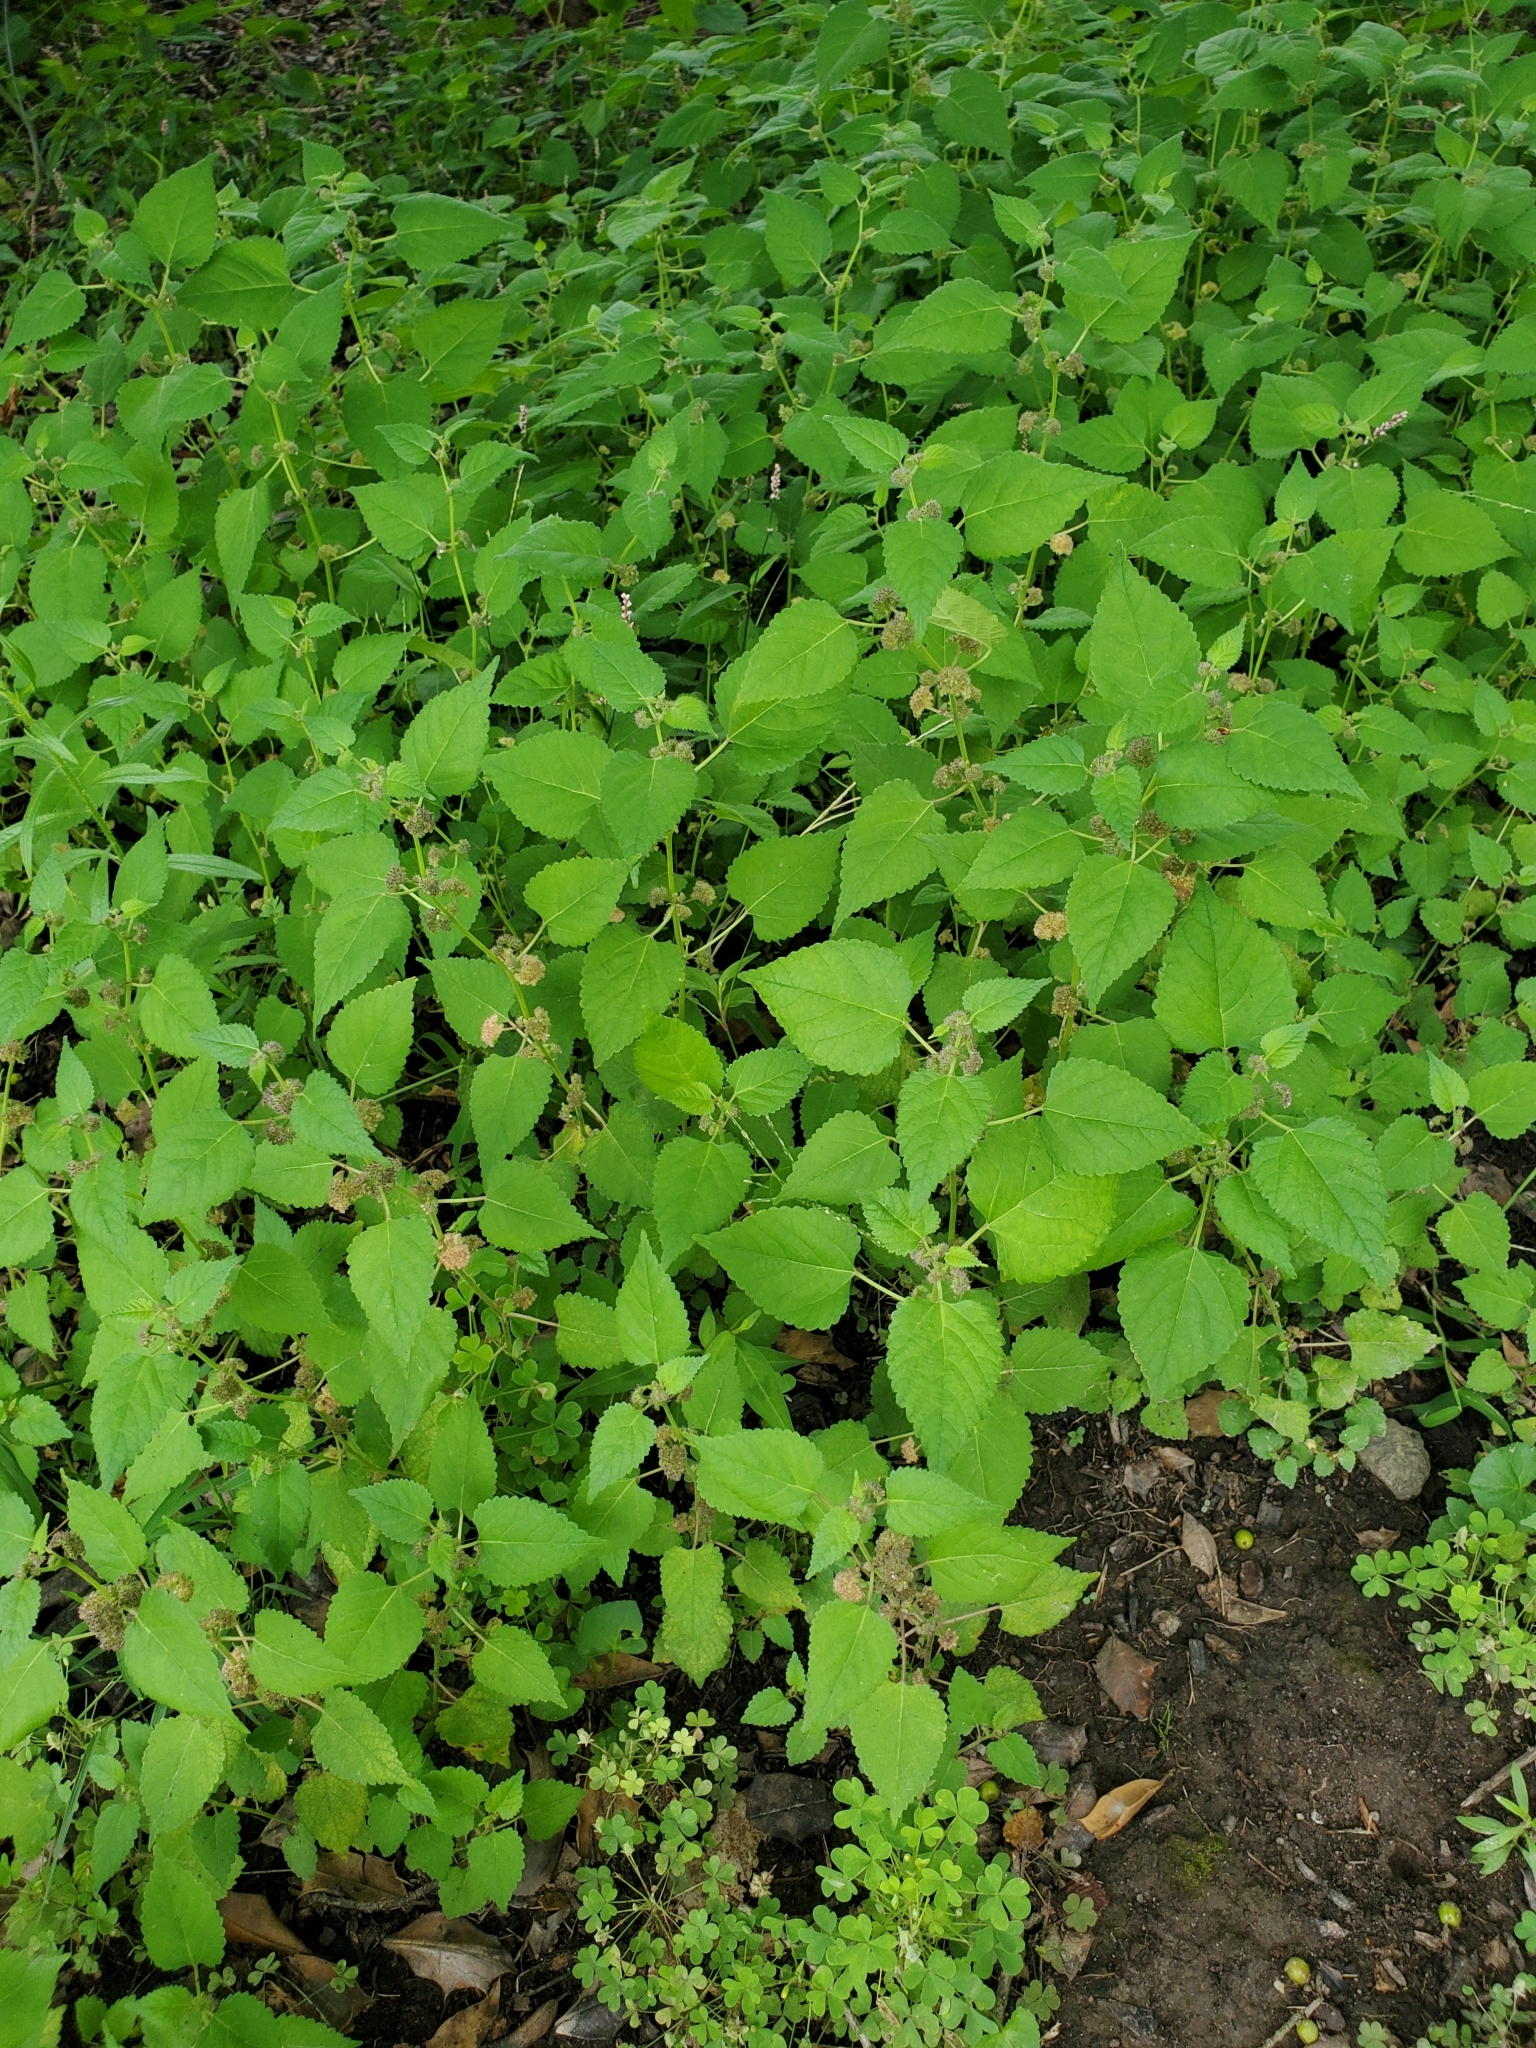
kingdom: Plantae
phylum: Tracheophyta
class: Magnoliopsida
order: Rosales
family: Moraceae
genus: Fatoua
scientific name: Fatoua villosa
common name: Hairy crabweed
